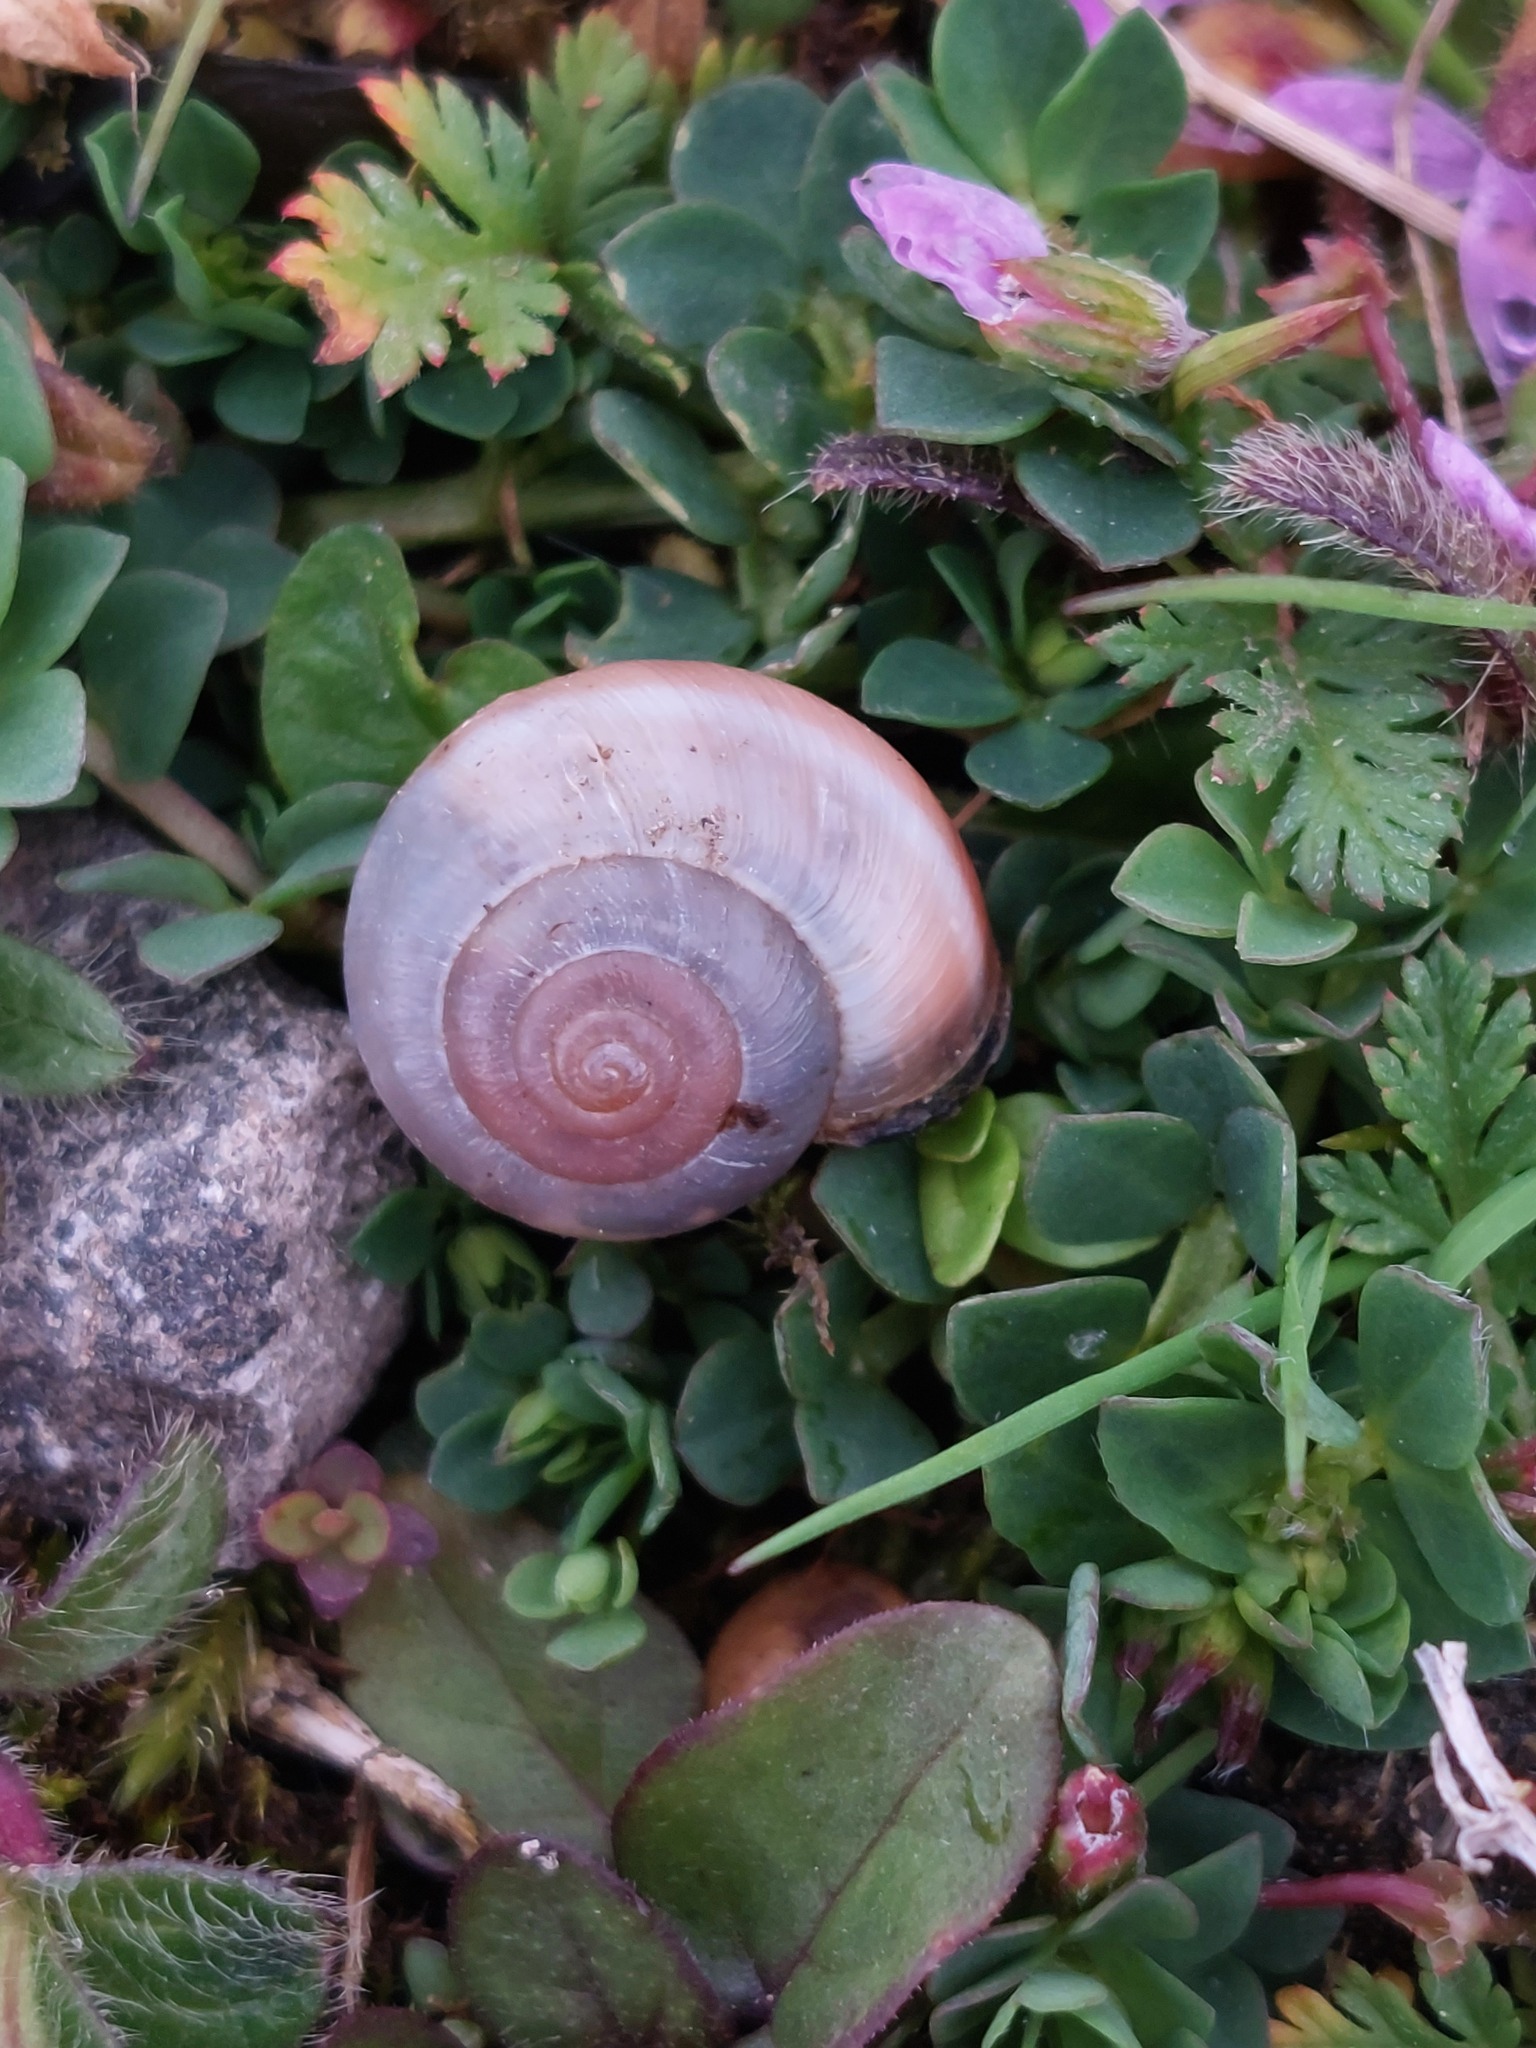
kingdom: Animalia
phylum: Mollusca
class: Gastropoda
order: Stylommatophora
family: Hygromiidae
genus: Monacha
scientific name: Monacha cantiana
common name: Kentish snail
